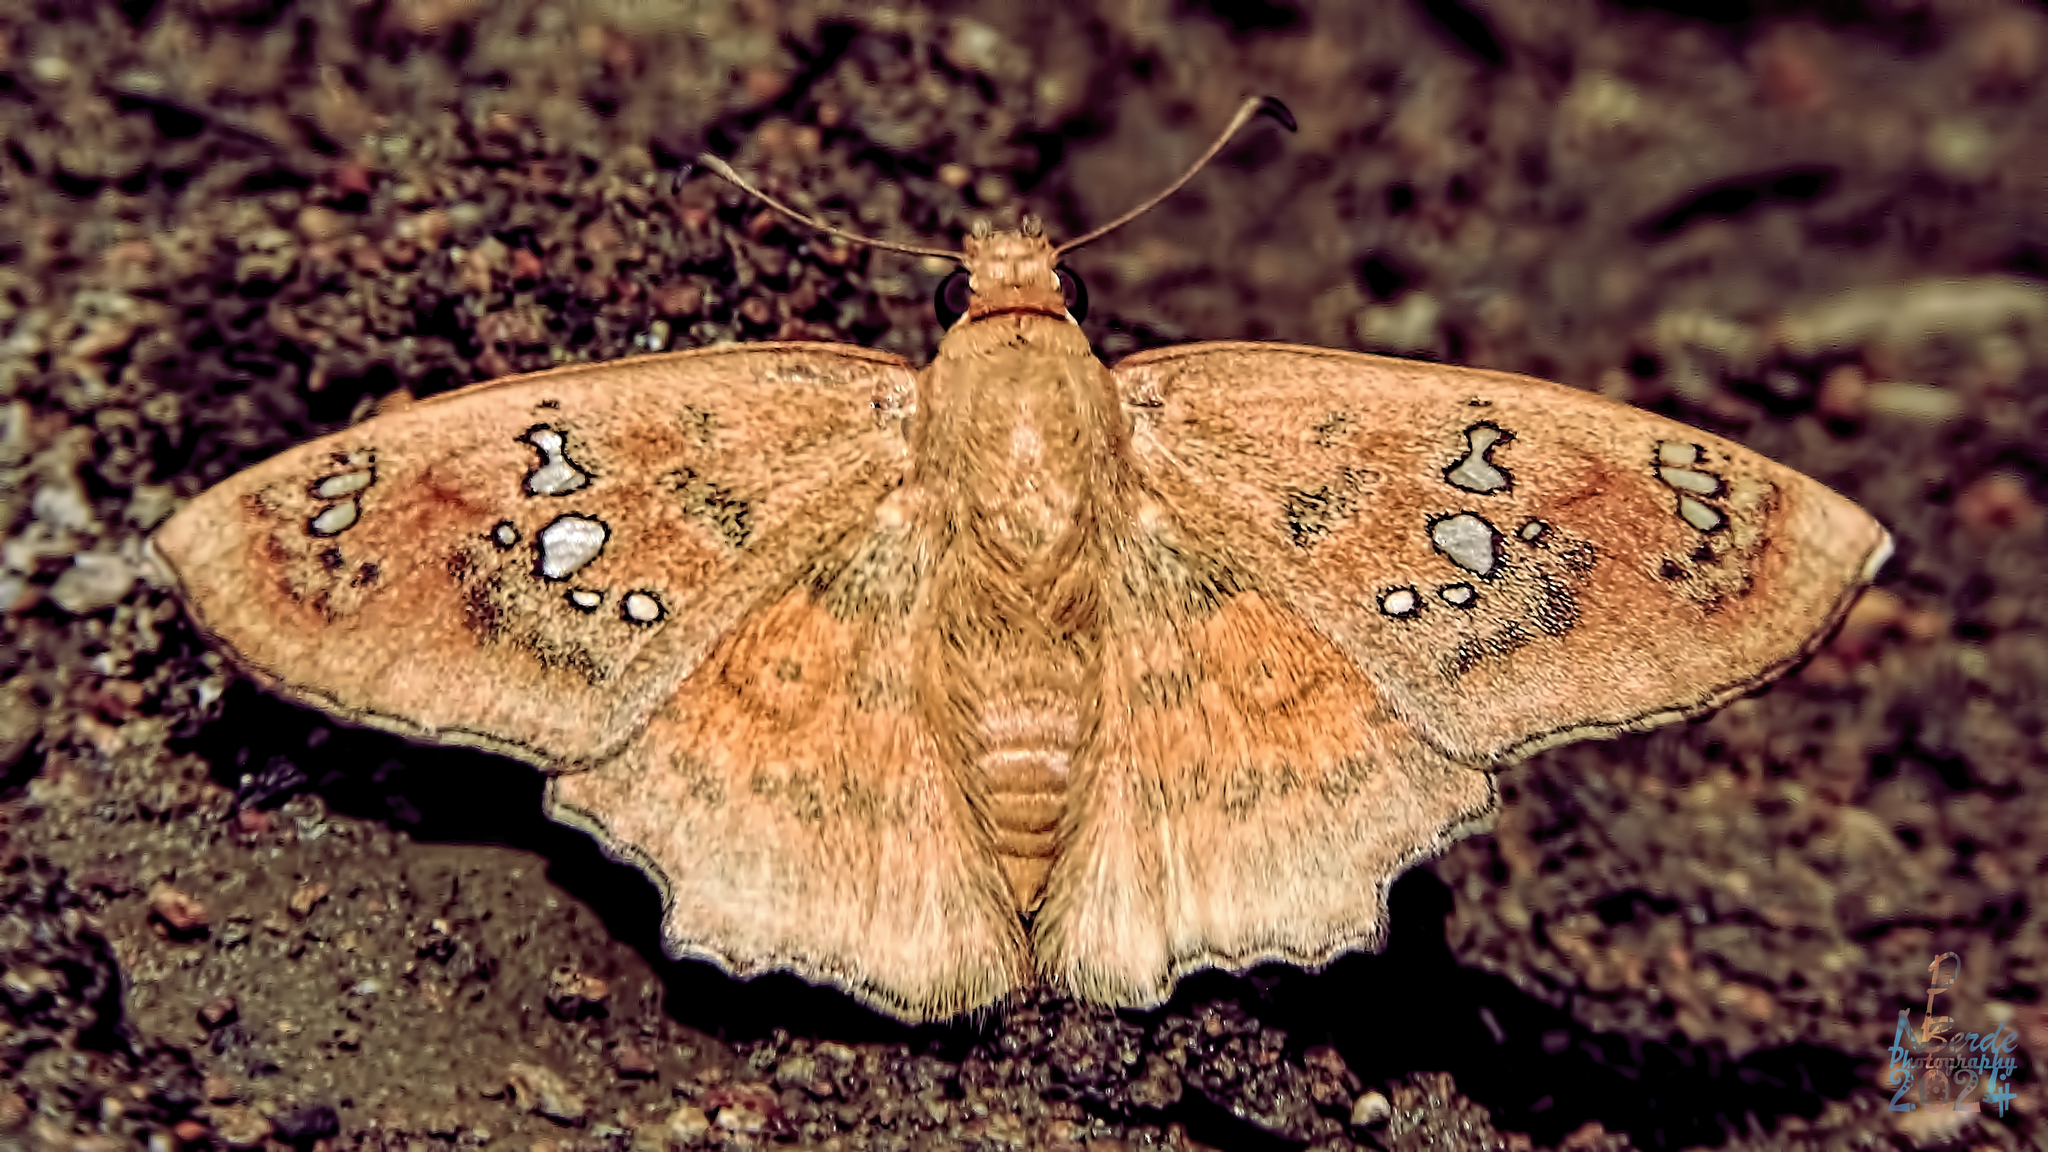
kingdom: Animalia
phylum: Arthropoda
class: Insecta
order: Lepidoptera
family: Hesperiidae
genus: Caprona
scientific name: Caprona ransonnettii
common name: Golden angle
